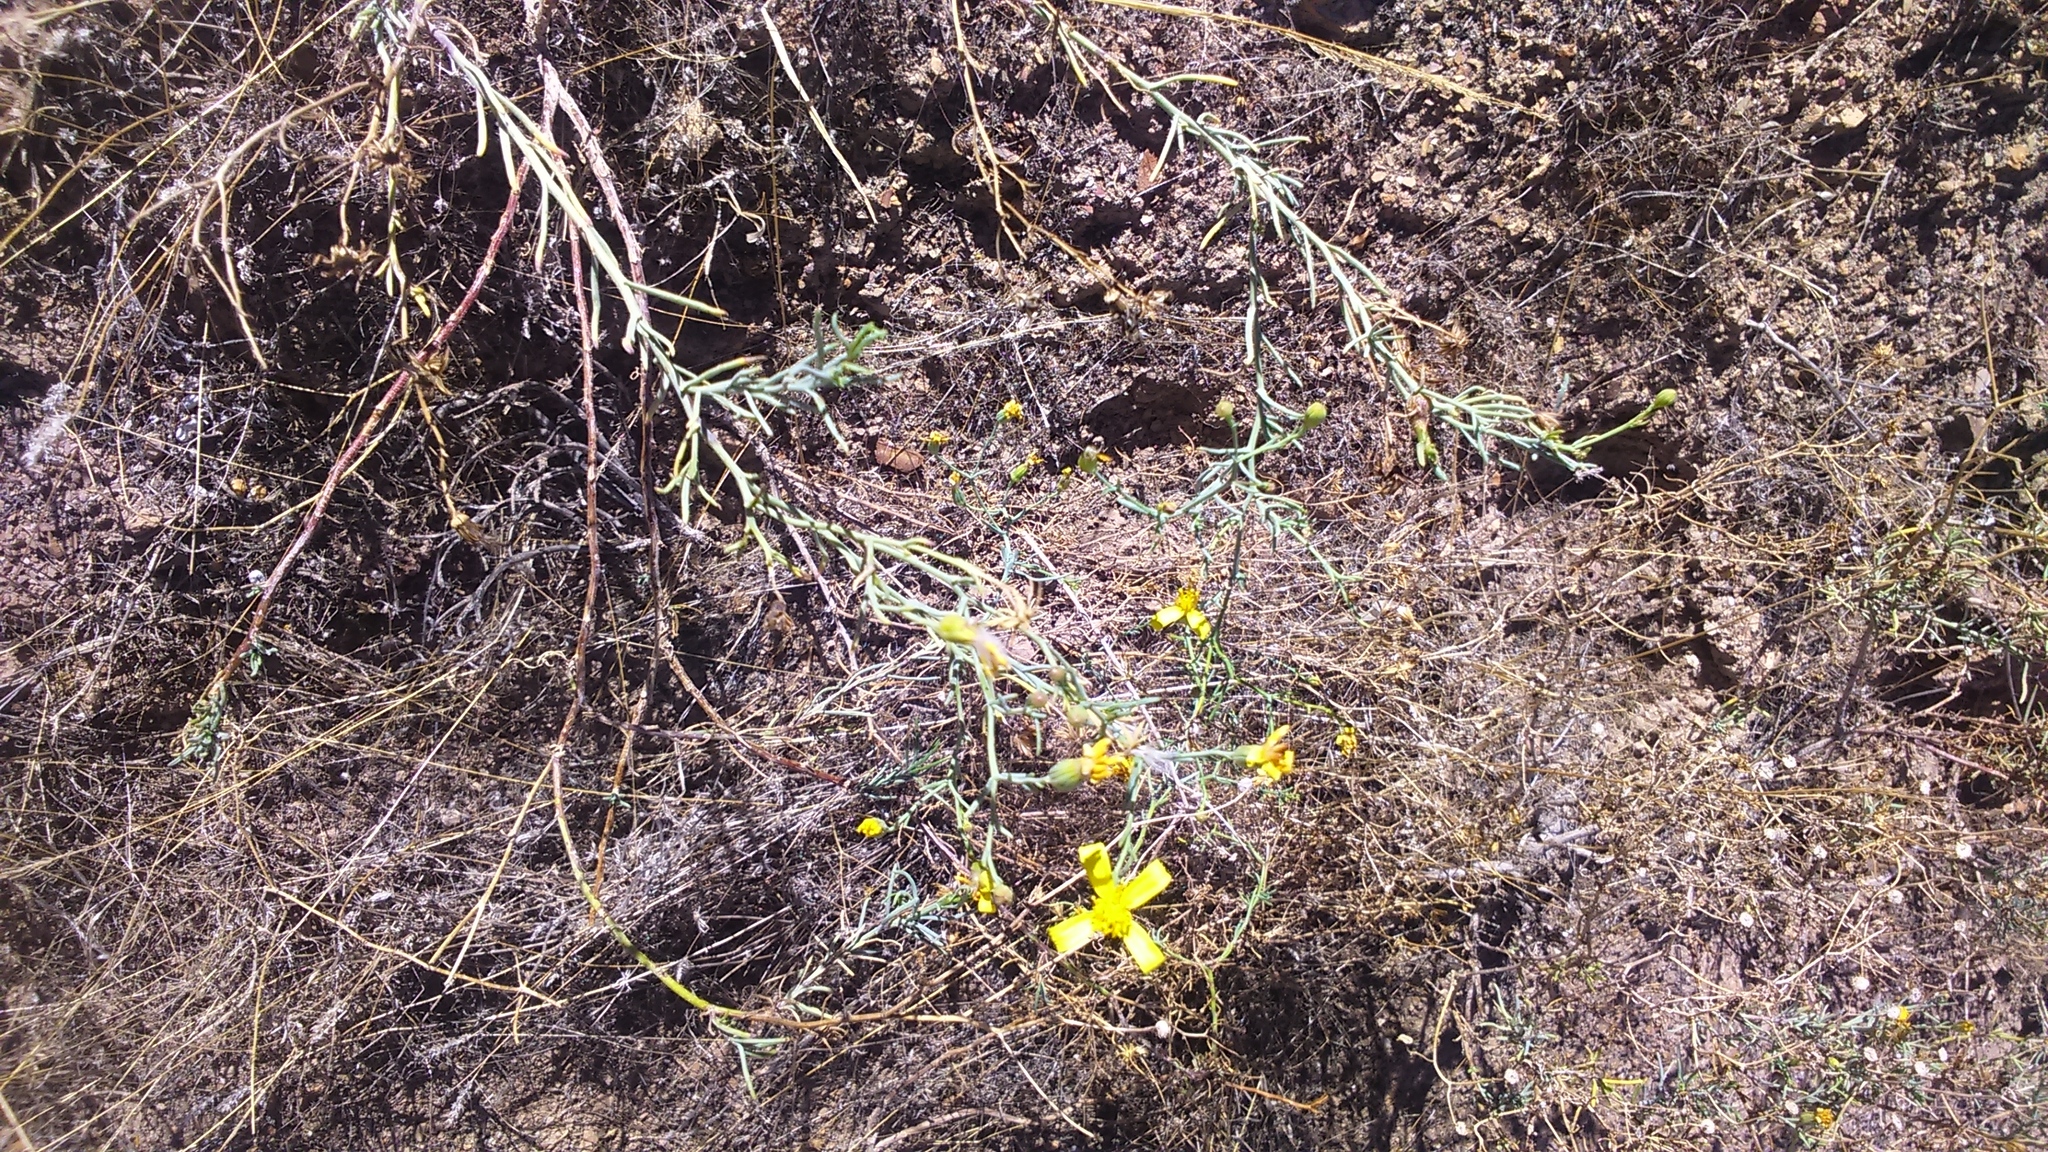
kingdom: Plantae
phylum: Tracheophyta
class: Magnoliopsida
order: Asterales
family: Asteraceae
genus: Senecio
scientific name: Senecio yurensis
